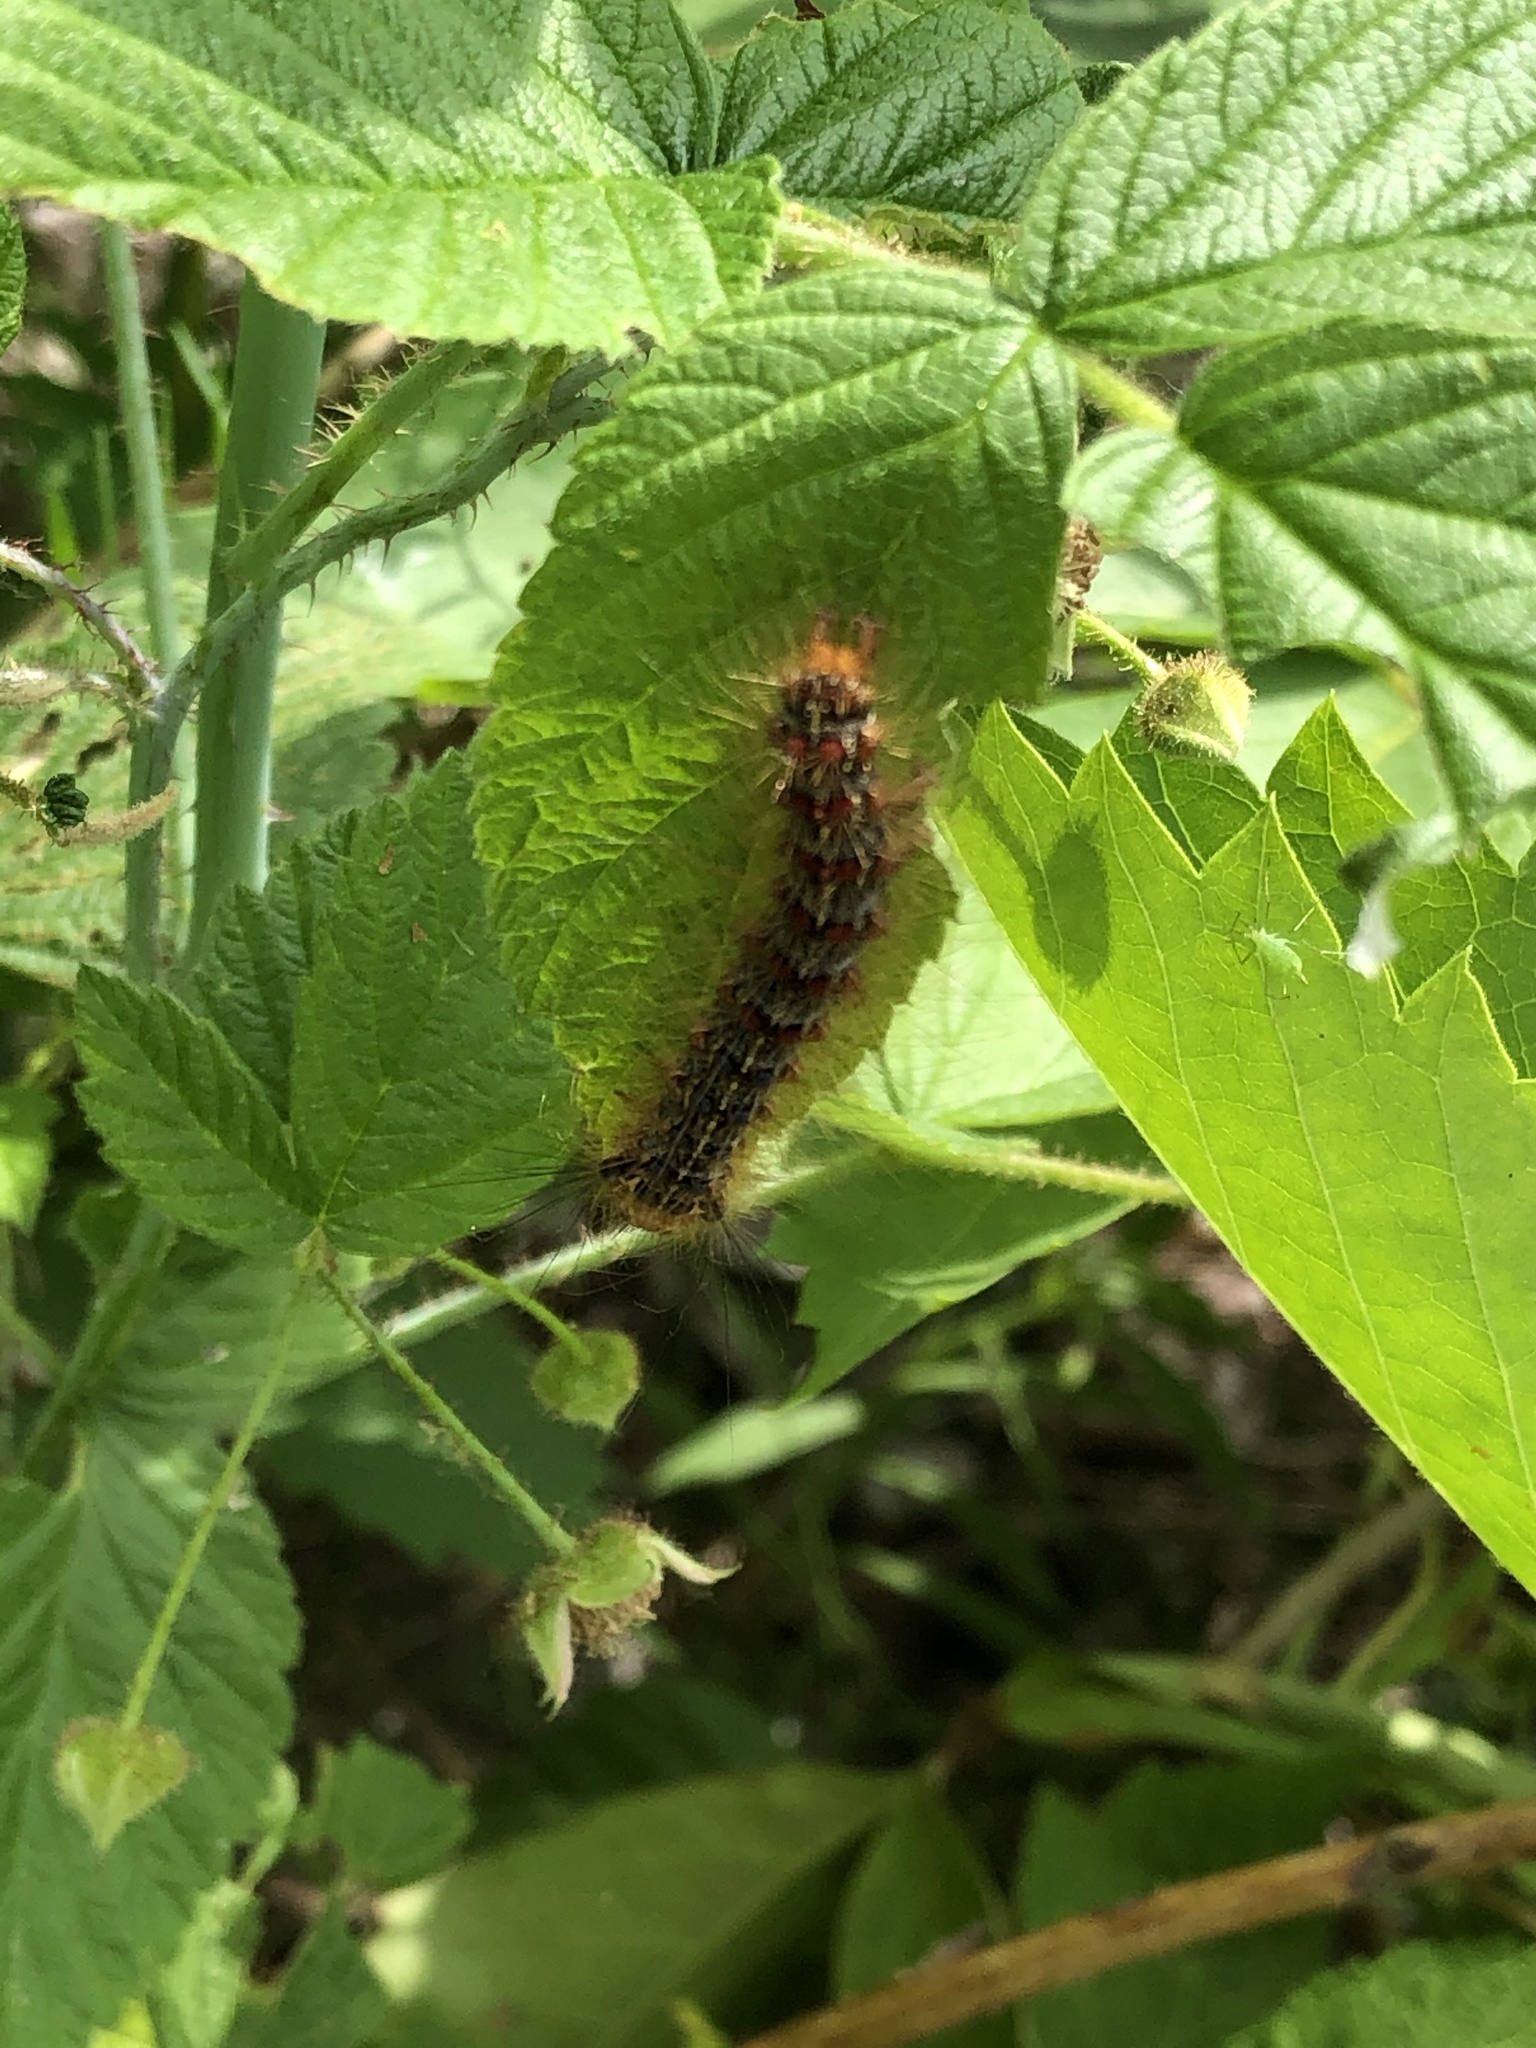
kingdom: Animalia
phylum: Arthropoda
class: Insecta
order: Lepidoptera
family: Erebidae
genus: Lymantria
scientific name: Lymantria dispar
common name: Gypsy moth
